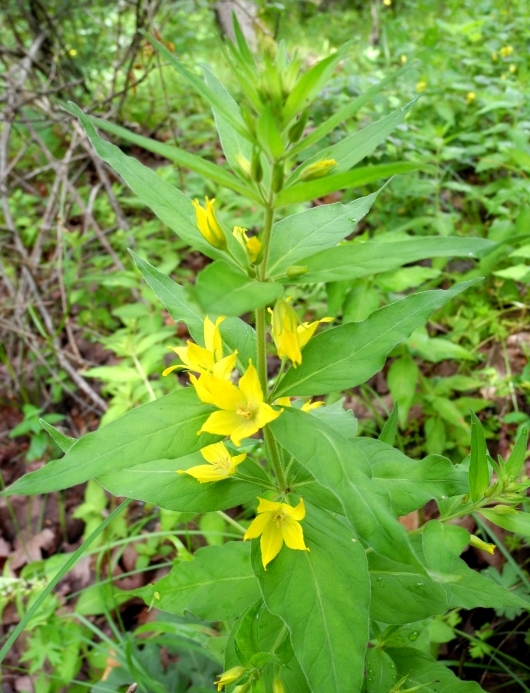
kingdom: Plantae
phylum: Tracheophyta
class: Magnoliopsida
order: Ericales
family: Primulaceae
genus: Lysimachia
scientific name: Lysimachia punctata
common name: Dotted loosestrife
